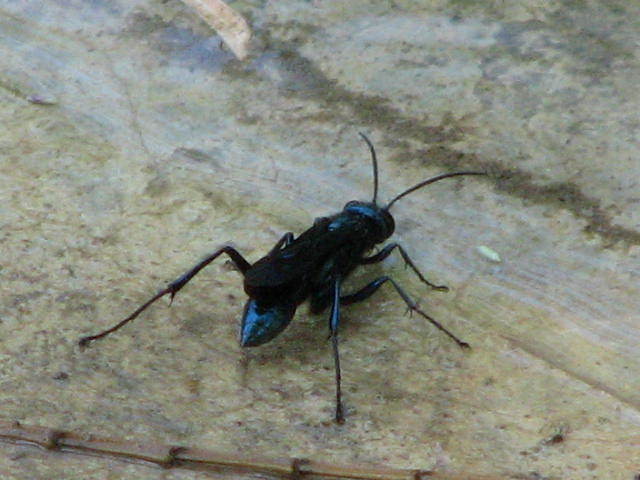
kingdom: Animalia
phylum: Arthropoda
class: Insecta
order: Hymenoptera
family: Sphecidae
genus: Chalybion
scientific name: Chalybion californicum
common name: Mud dauber
